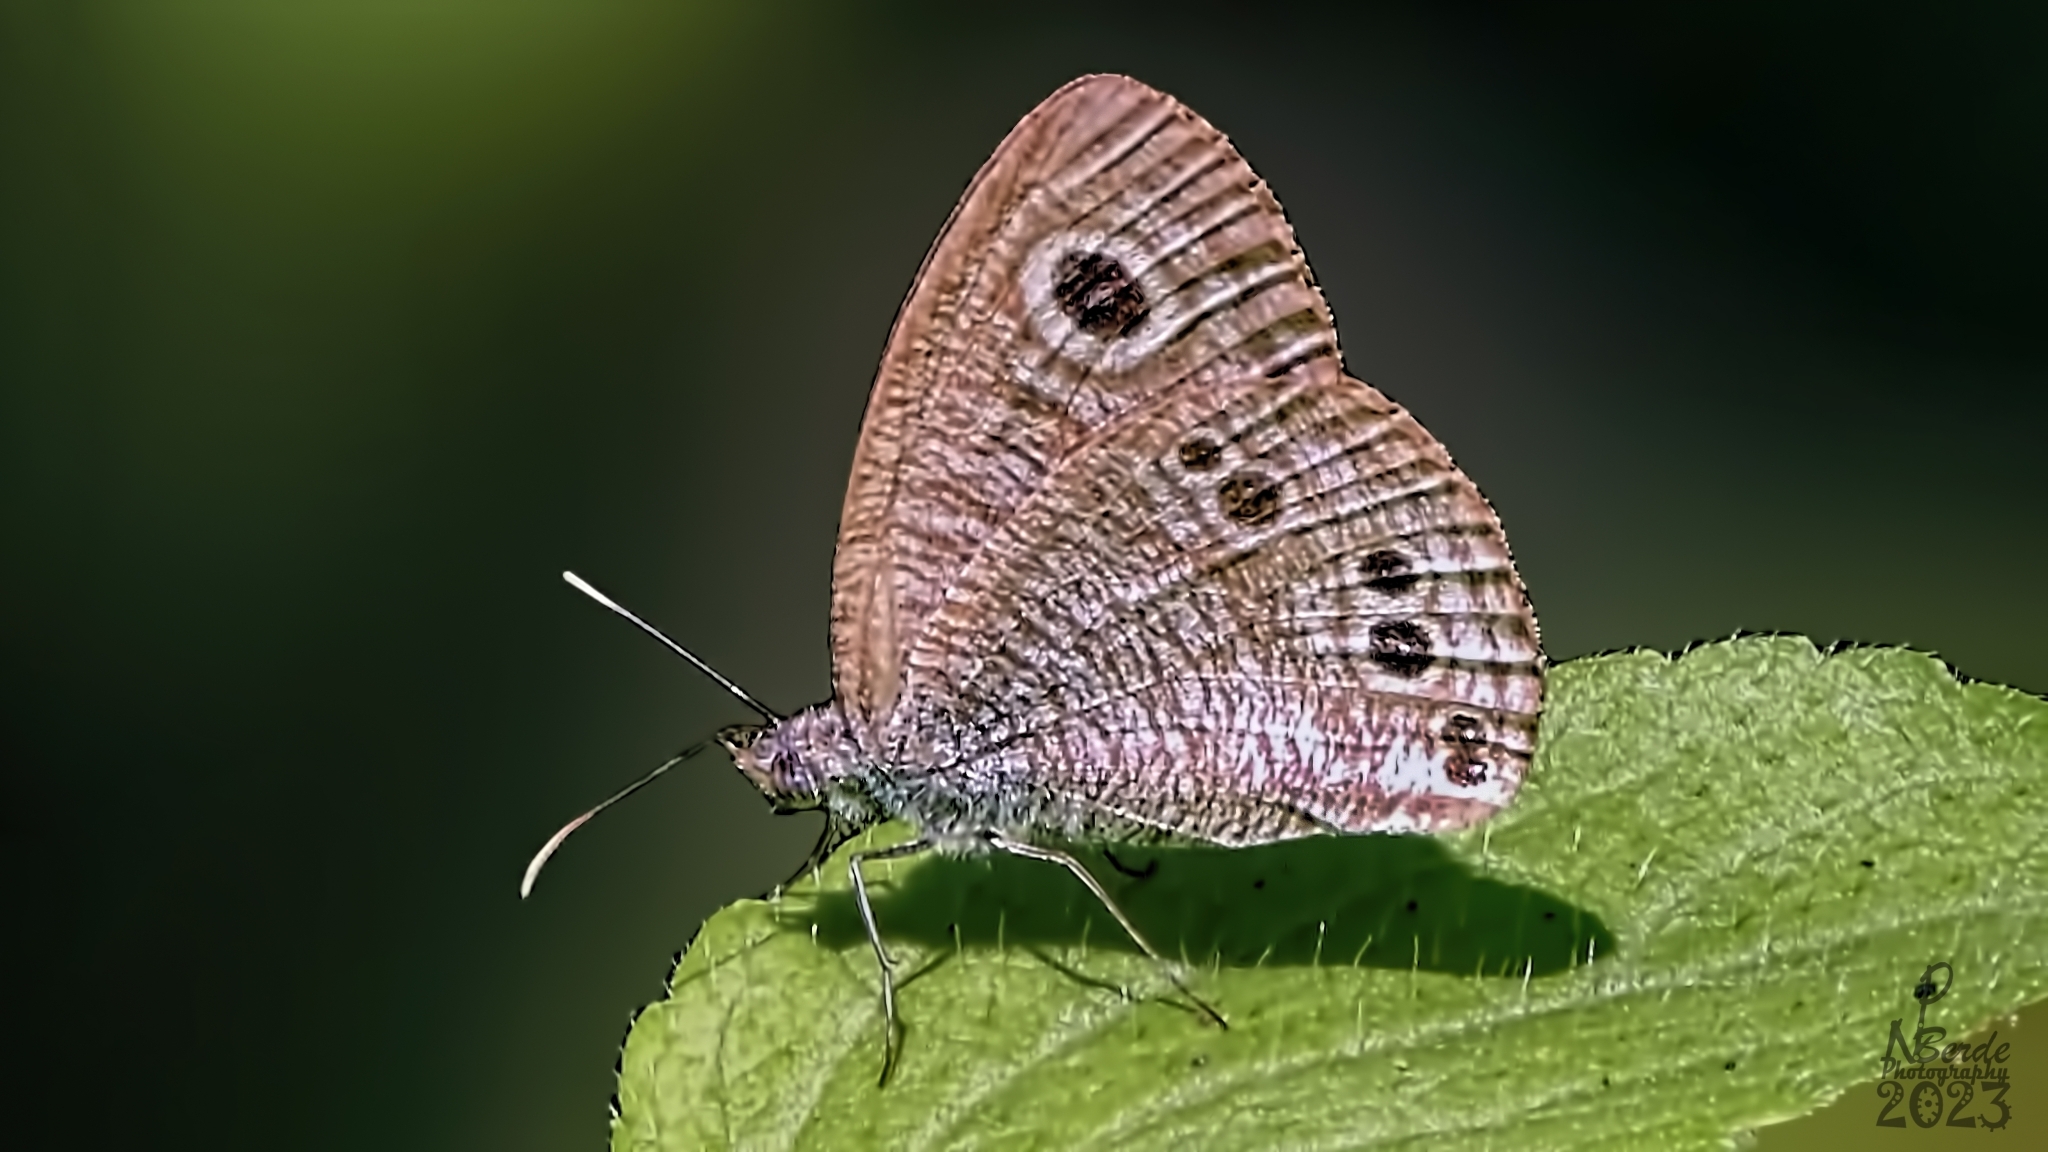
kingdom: Animalia
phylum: Arthropoda
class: Insecta
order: Lepidoptera
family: Nymphalidae
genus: Ypthima
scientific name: Ypthima baldus
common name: Common five-ring
